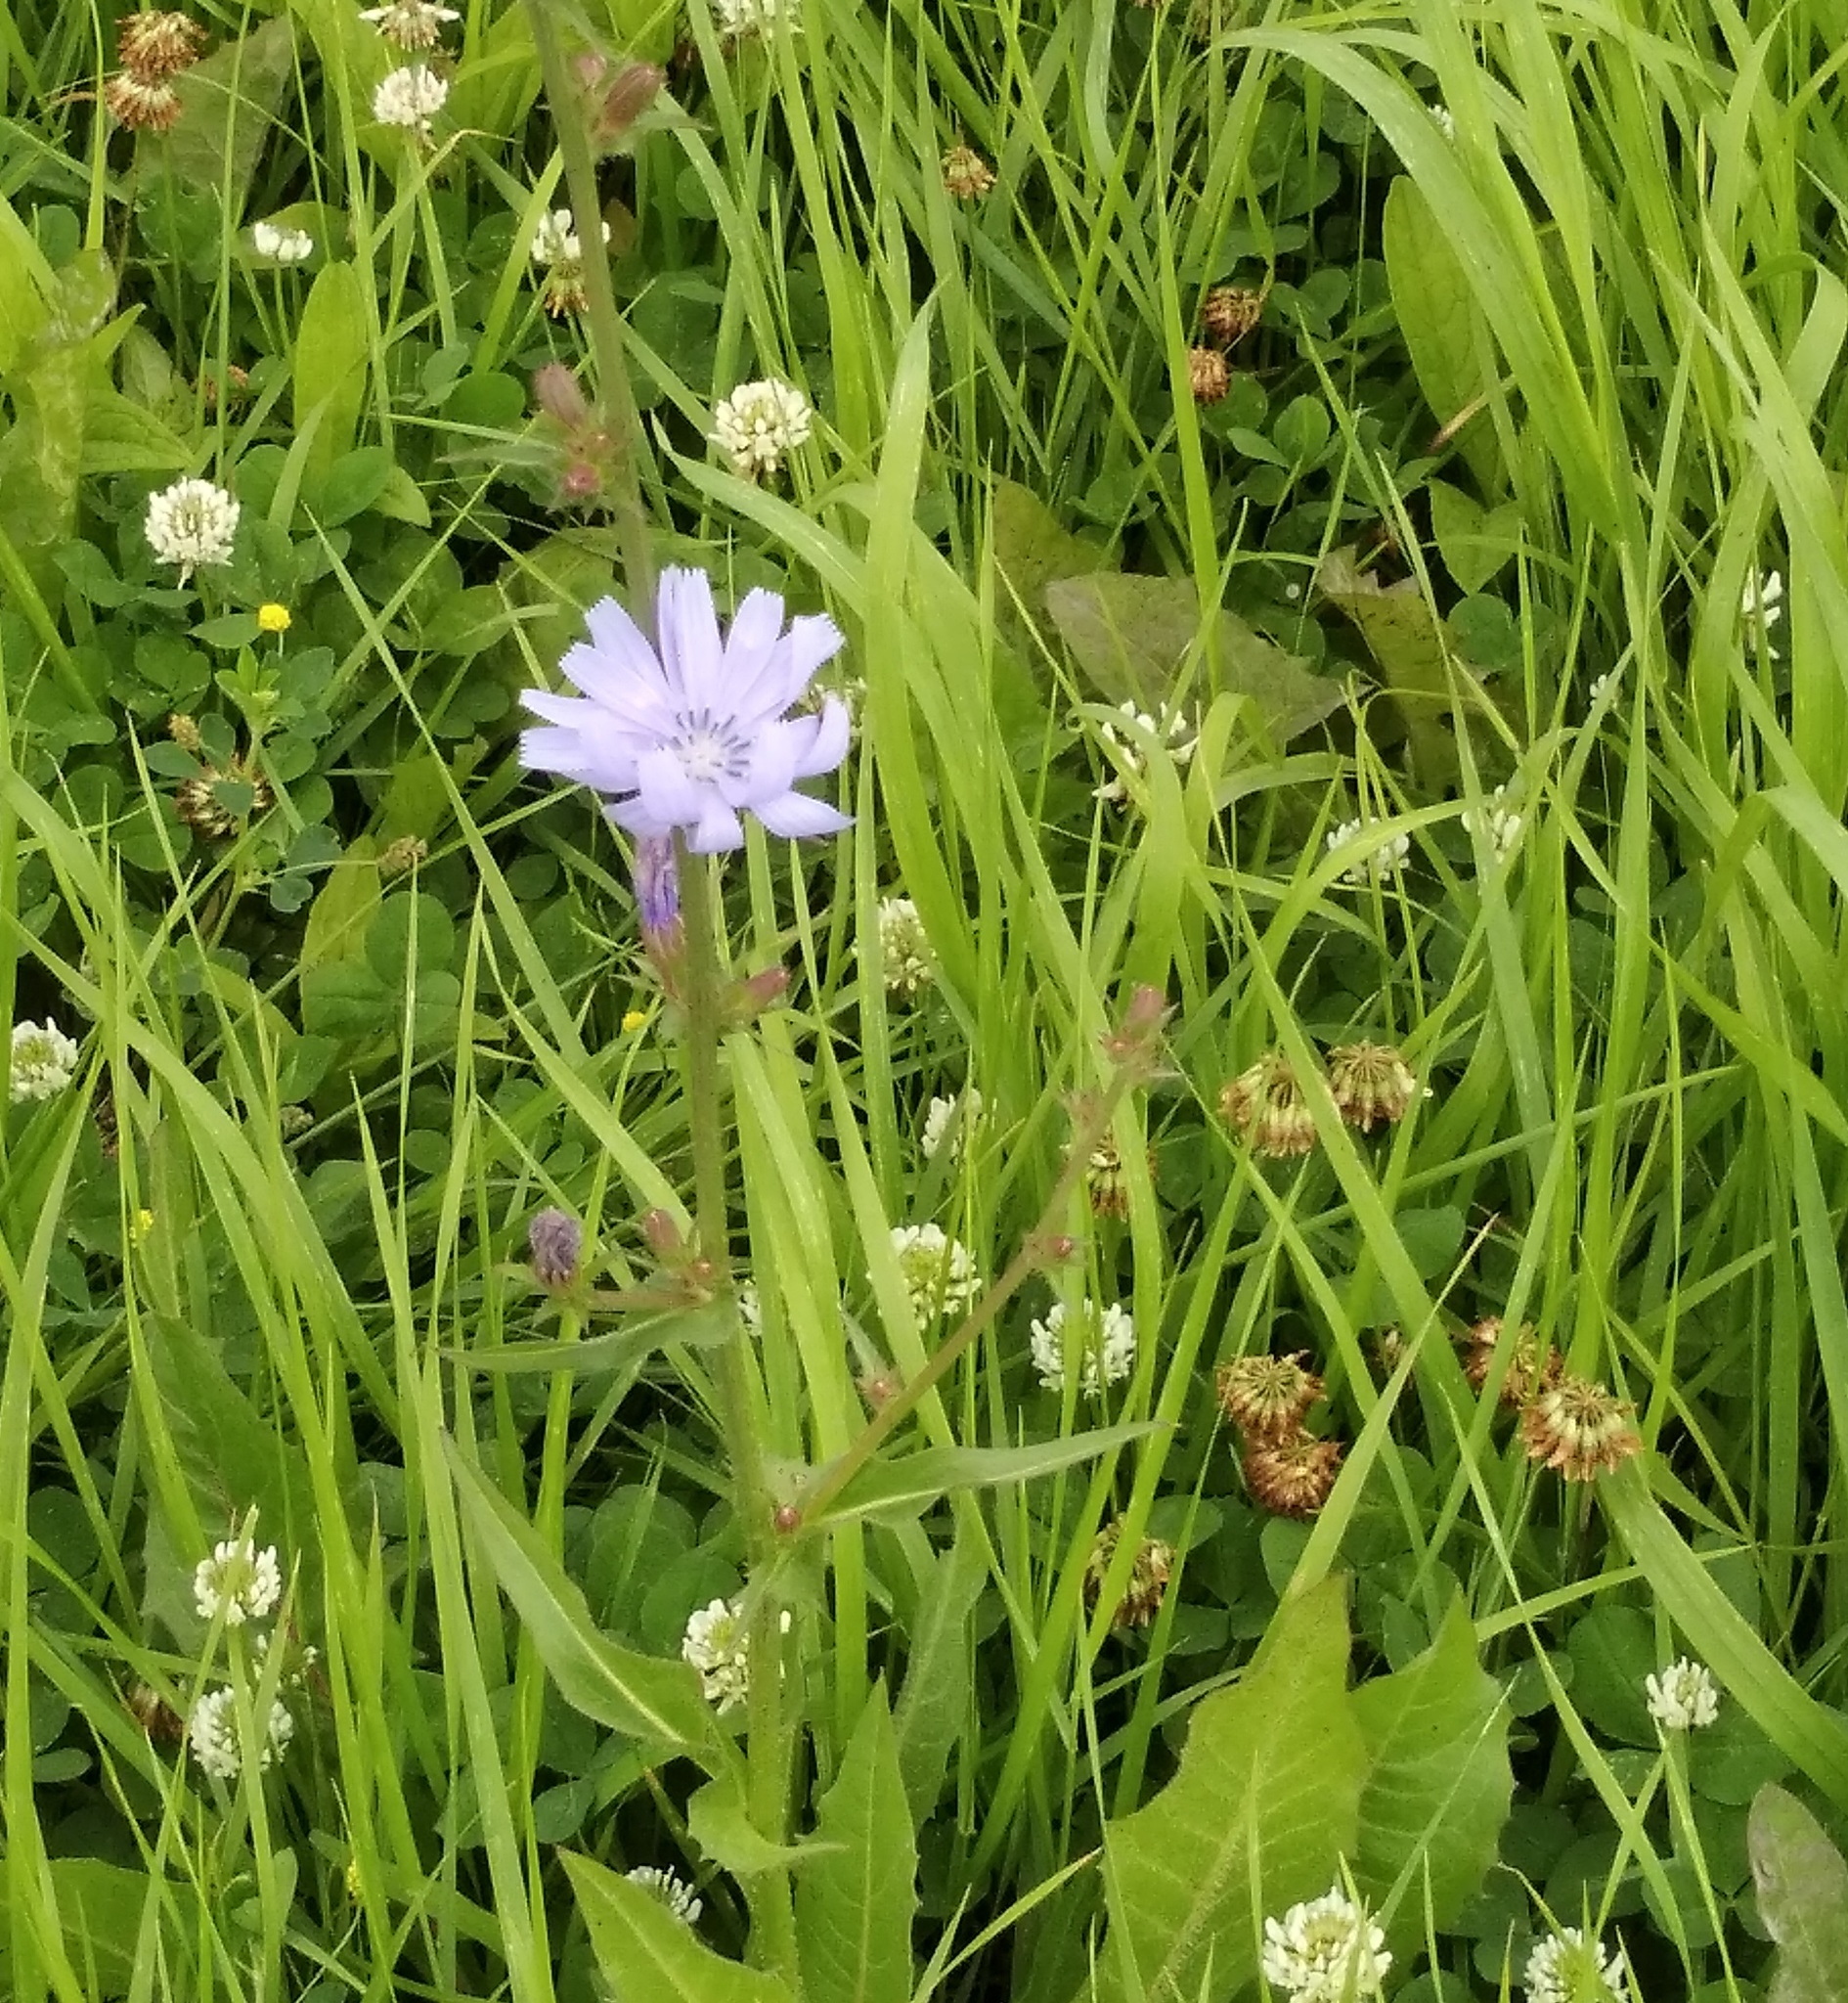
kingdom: Plantae
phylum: Tracheophyta
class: Magnoliopsida
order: Asterales
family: Asteraceae
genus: Cichorium
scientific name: Cichorium intybus
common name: Chicory
